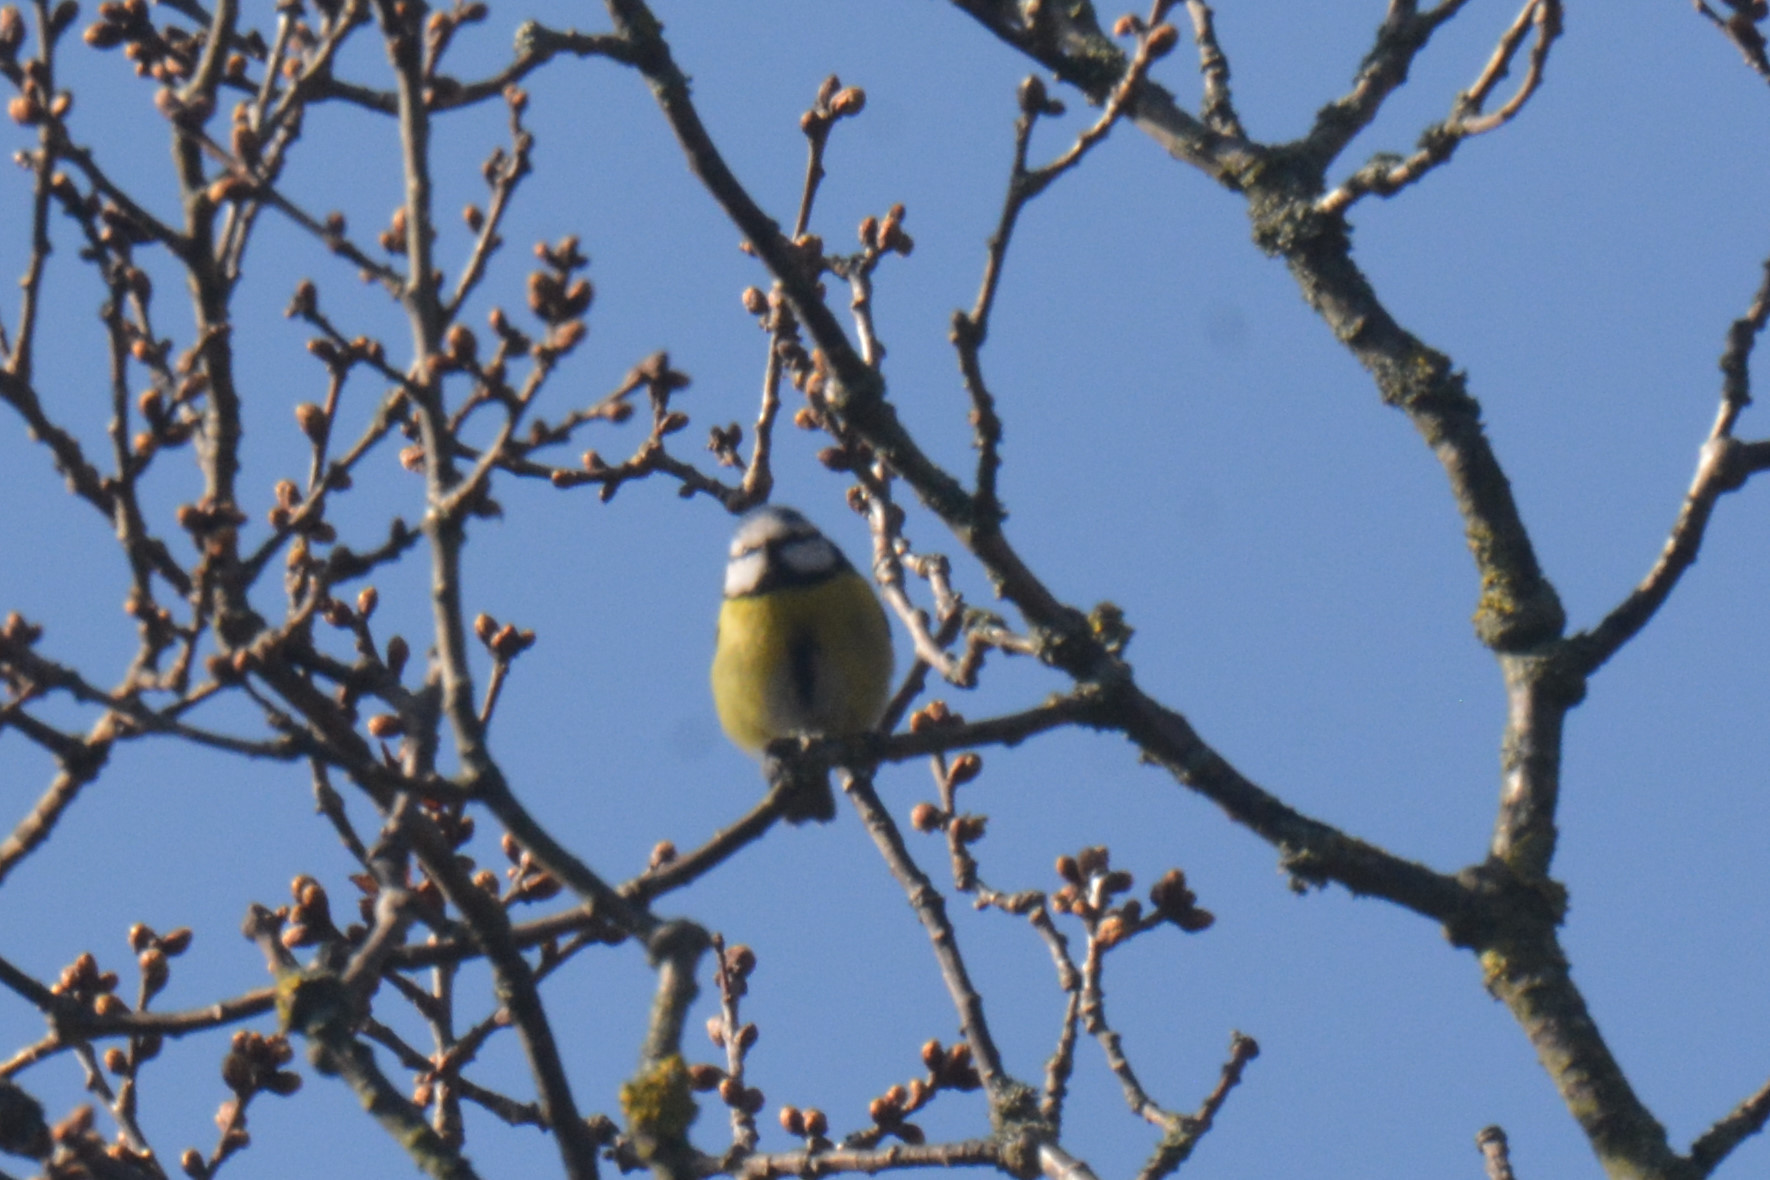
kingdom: Animalia
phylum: Chordata
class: Aves
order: Passeriformes
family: Paridae
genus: Cyanistes
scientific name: Cyanistes caeruleus
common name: Eurasian blue tit
